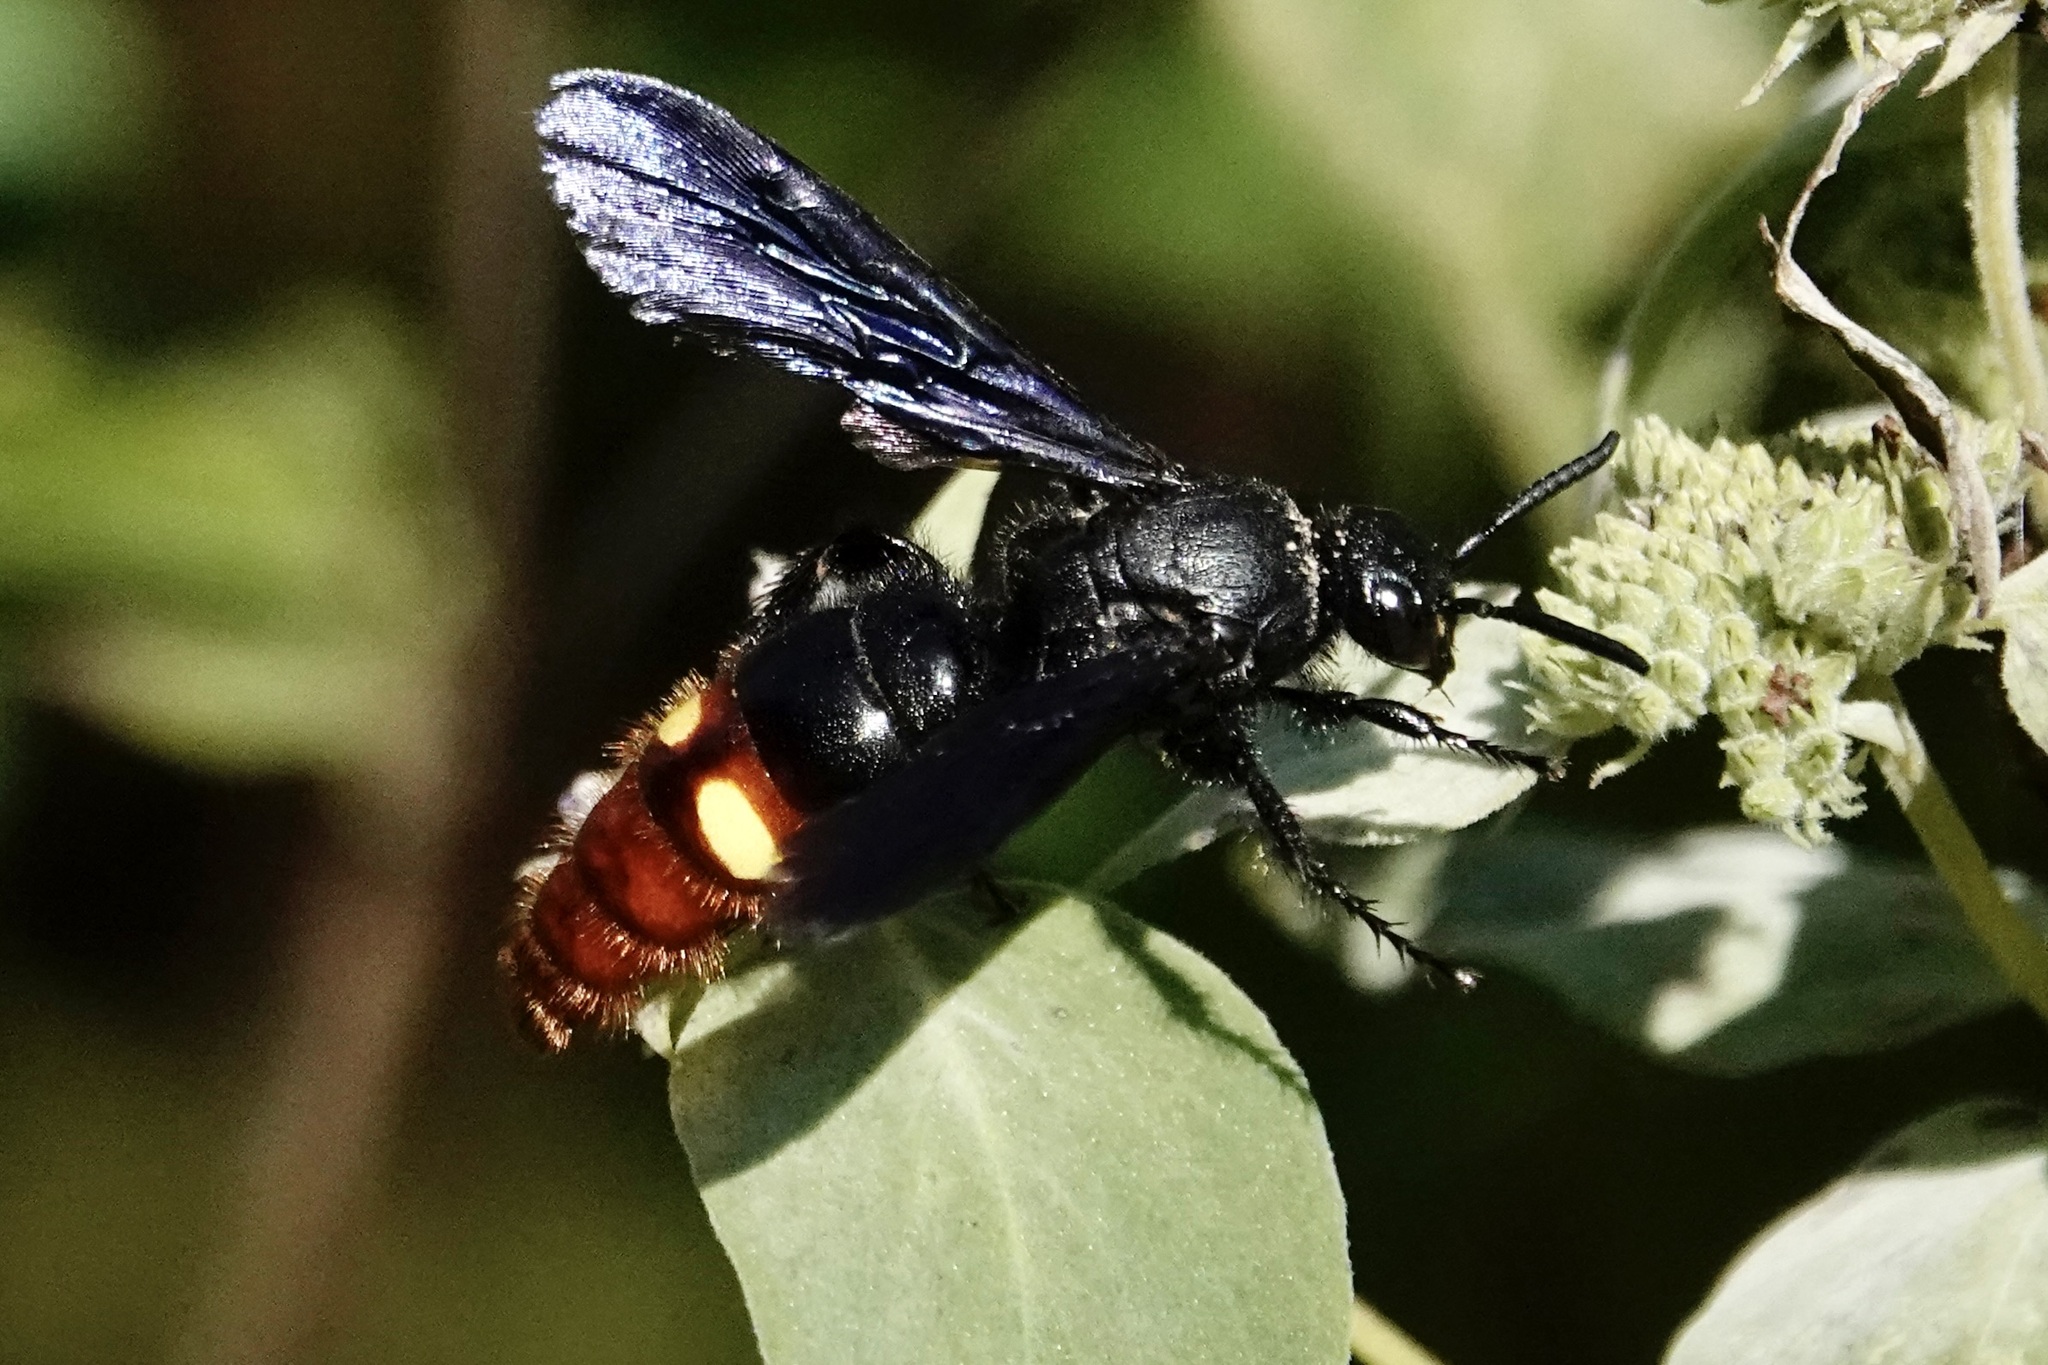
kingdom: Animalia
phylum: Arthropoda
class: Insecta
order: Hymenoptera
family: Scoliidae
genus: Scolia
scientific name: Scolia dubia
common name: Blue-winged scoliid wasp
